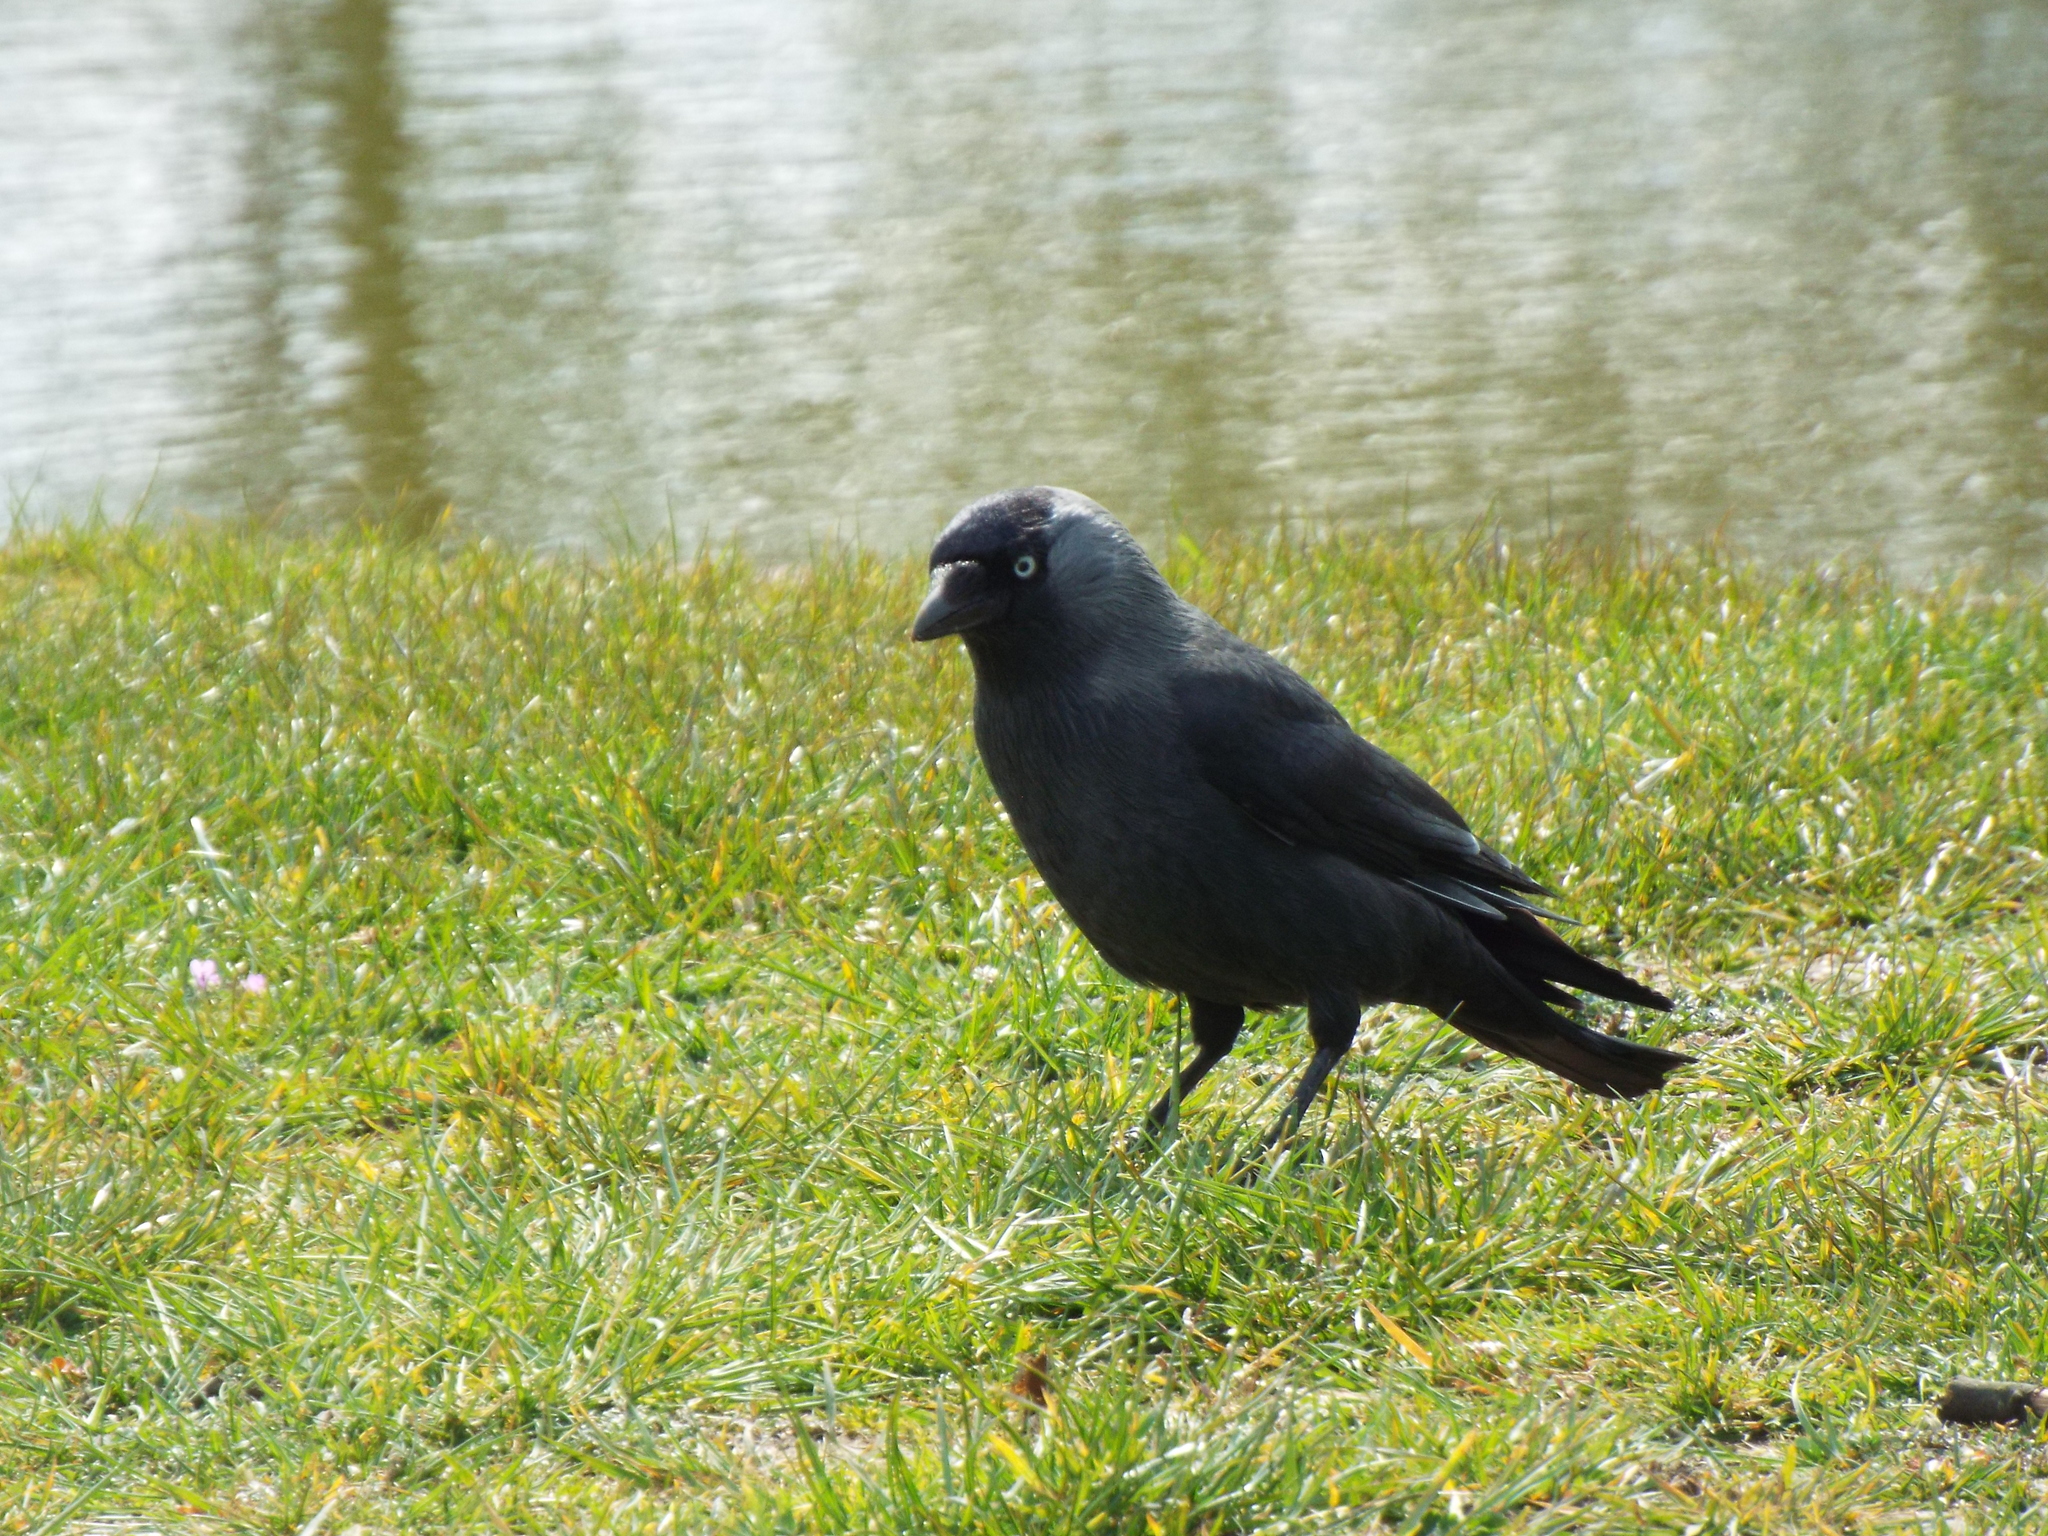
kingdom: Animalia
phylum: Chordata
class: Aves
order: Passeriformes
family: Corvidae
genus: Coloeus
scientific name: Coloeus monedula
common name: Western jackdaw
